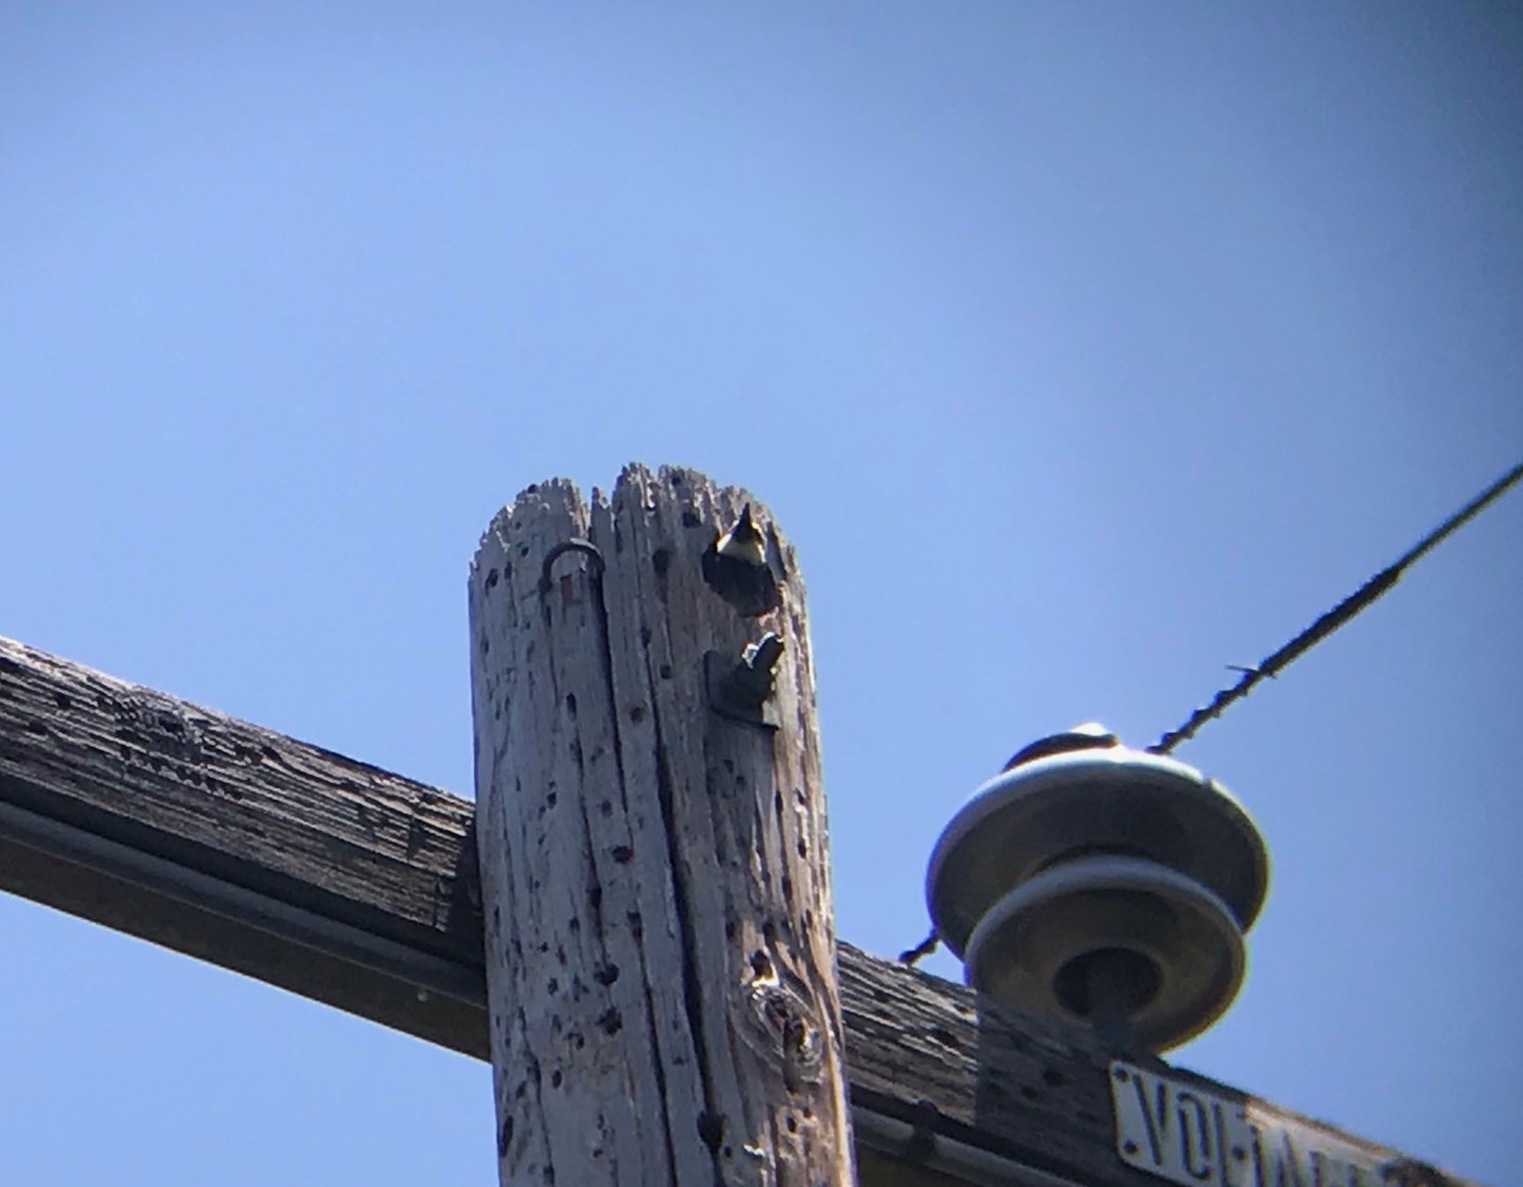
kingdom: Animalia
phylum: Chordata
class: Aves
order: Piciformes
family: Picidae
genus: Melanerpes
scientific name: Melanerpes formicivorus
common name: Acorn woodpecker
